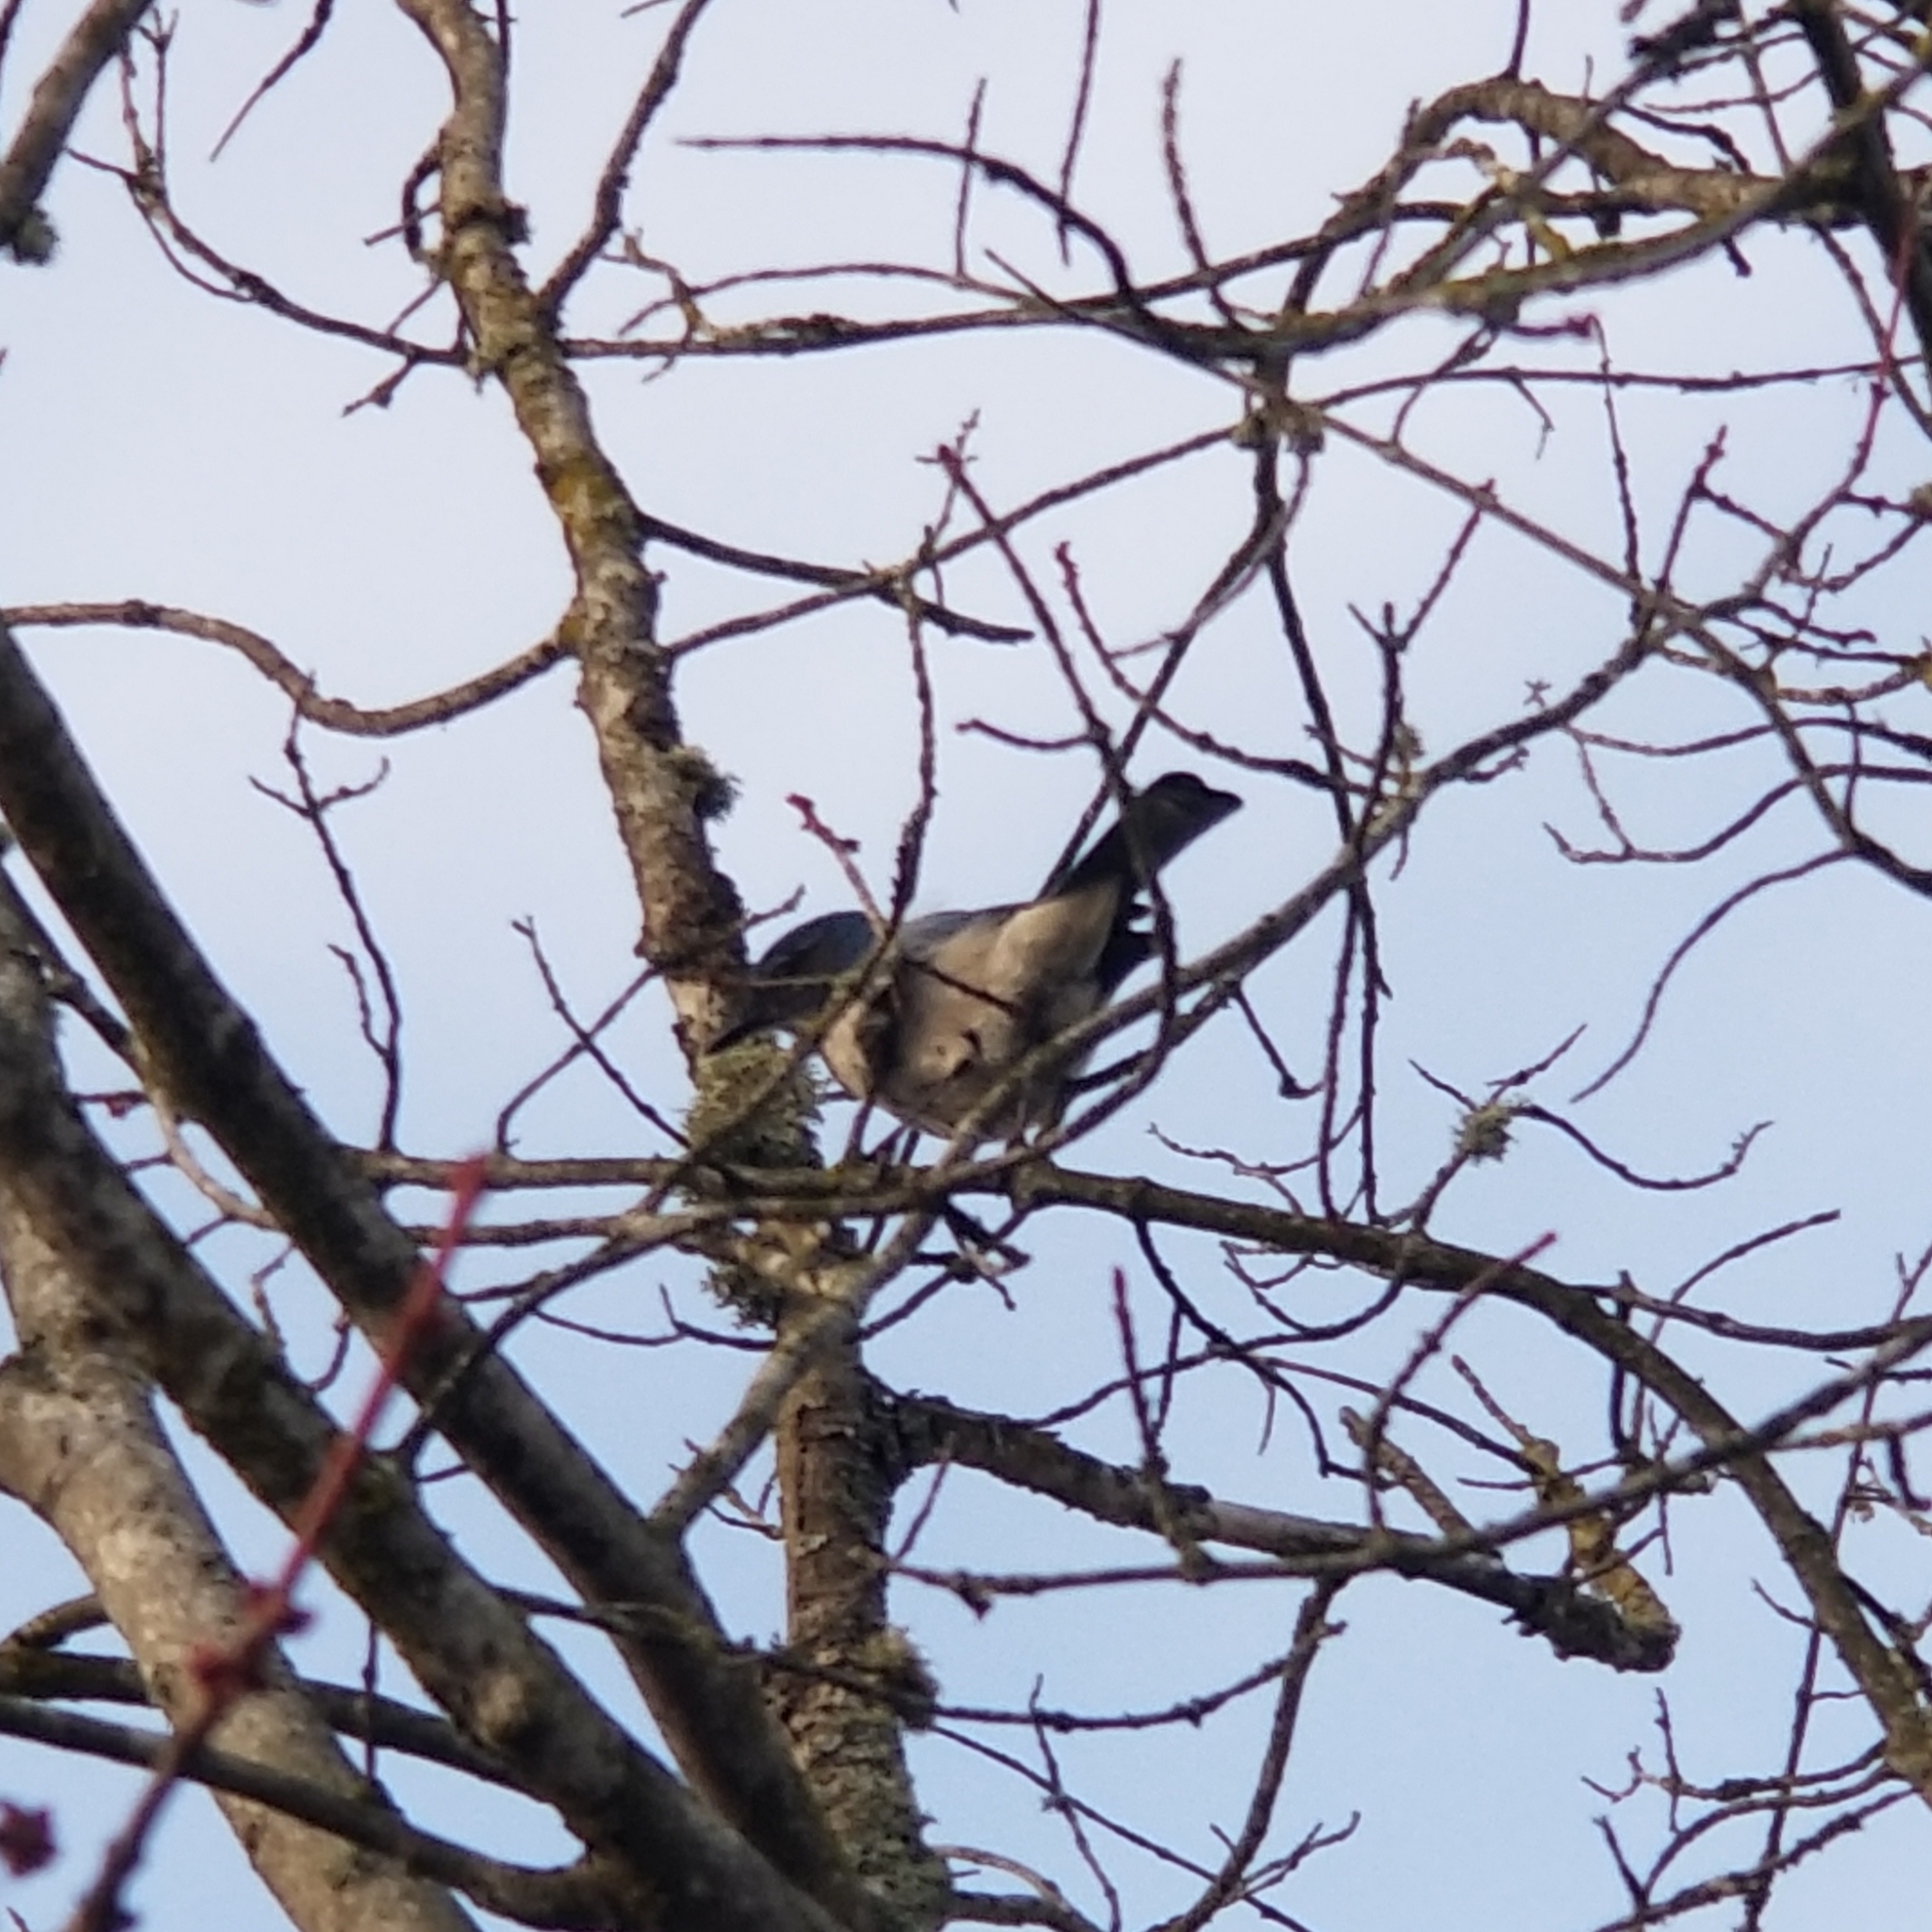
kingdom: Animalia
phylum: Chordata
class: Aves
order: Passeriformes
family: Corvidae
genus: Aphelocoma
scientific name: Aphelocoma californica
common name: California scrub-jay
